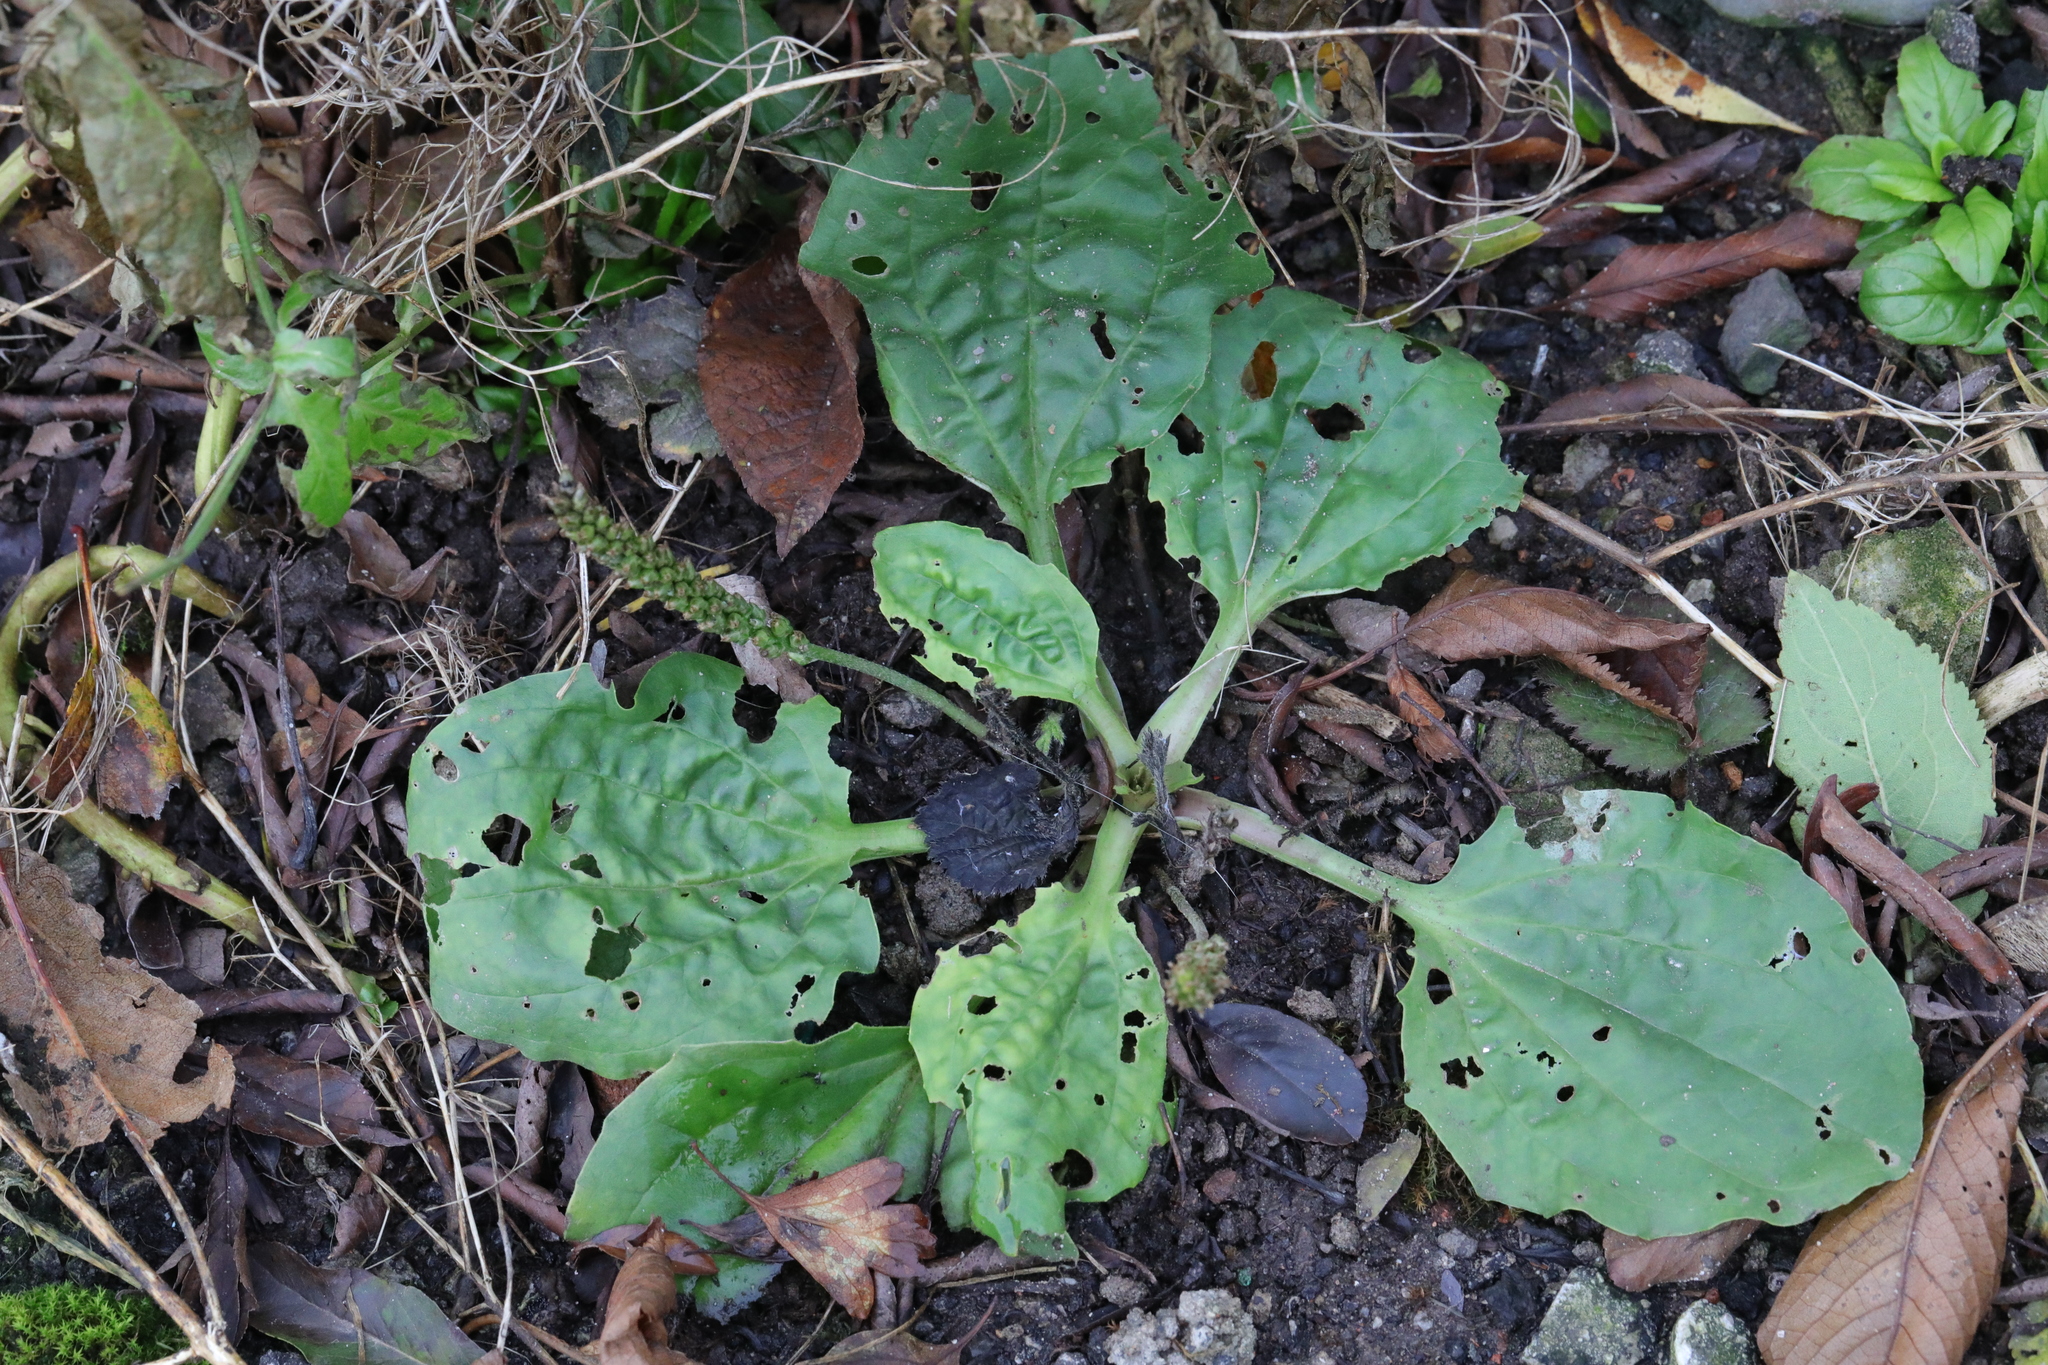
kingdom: Plantae
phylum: Tracheophyta
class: Magnoliopsida
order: Lamiales
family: Plantaginaceae
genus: Plantago
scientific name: Plantago major
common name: Common plantain
